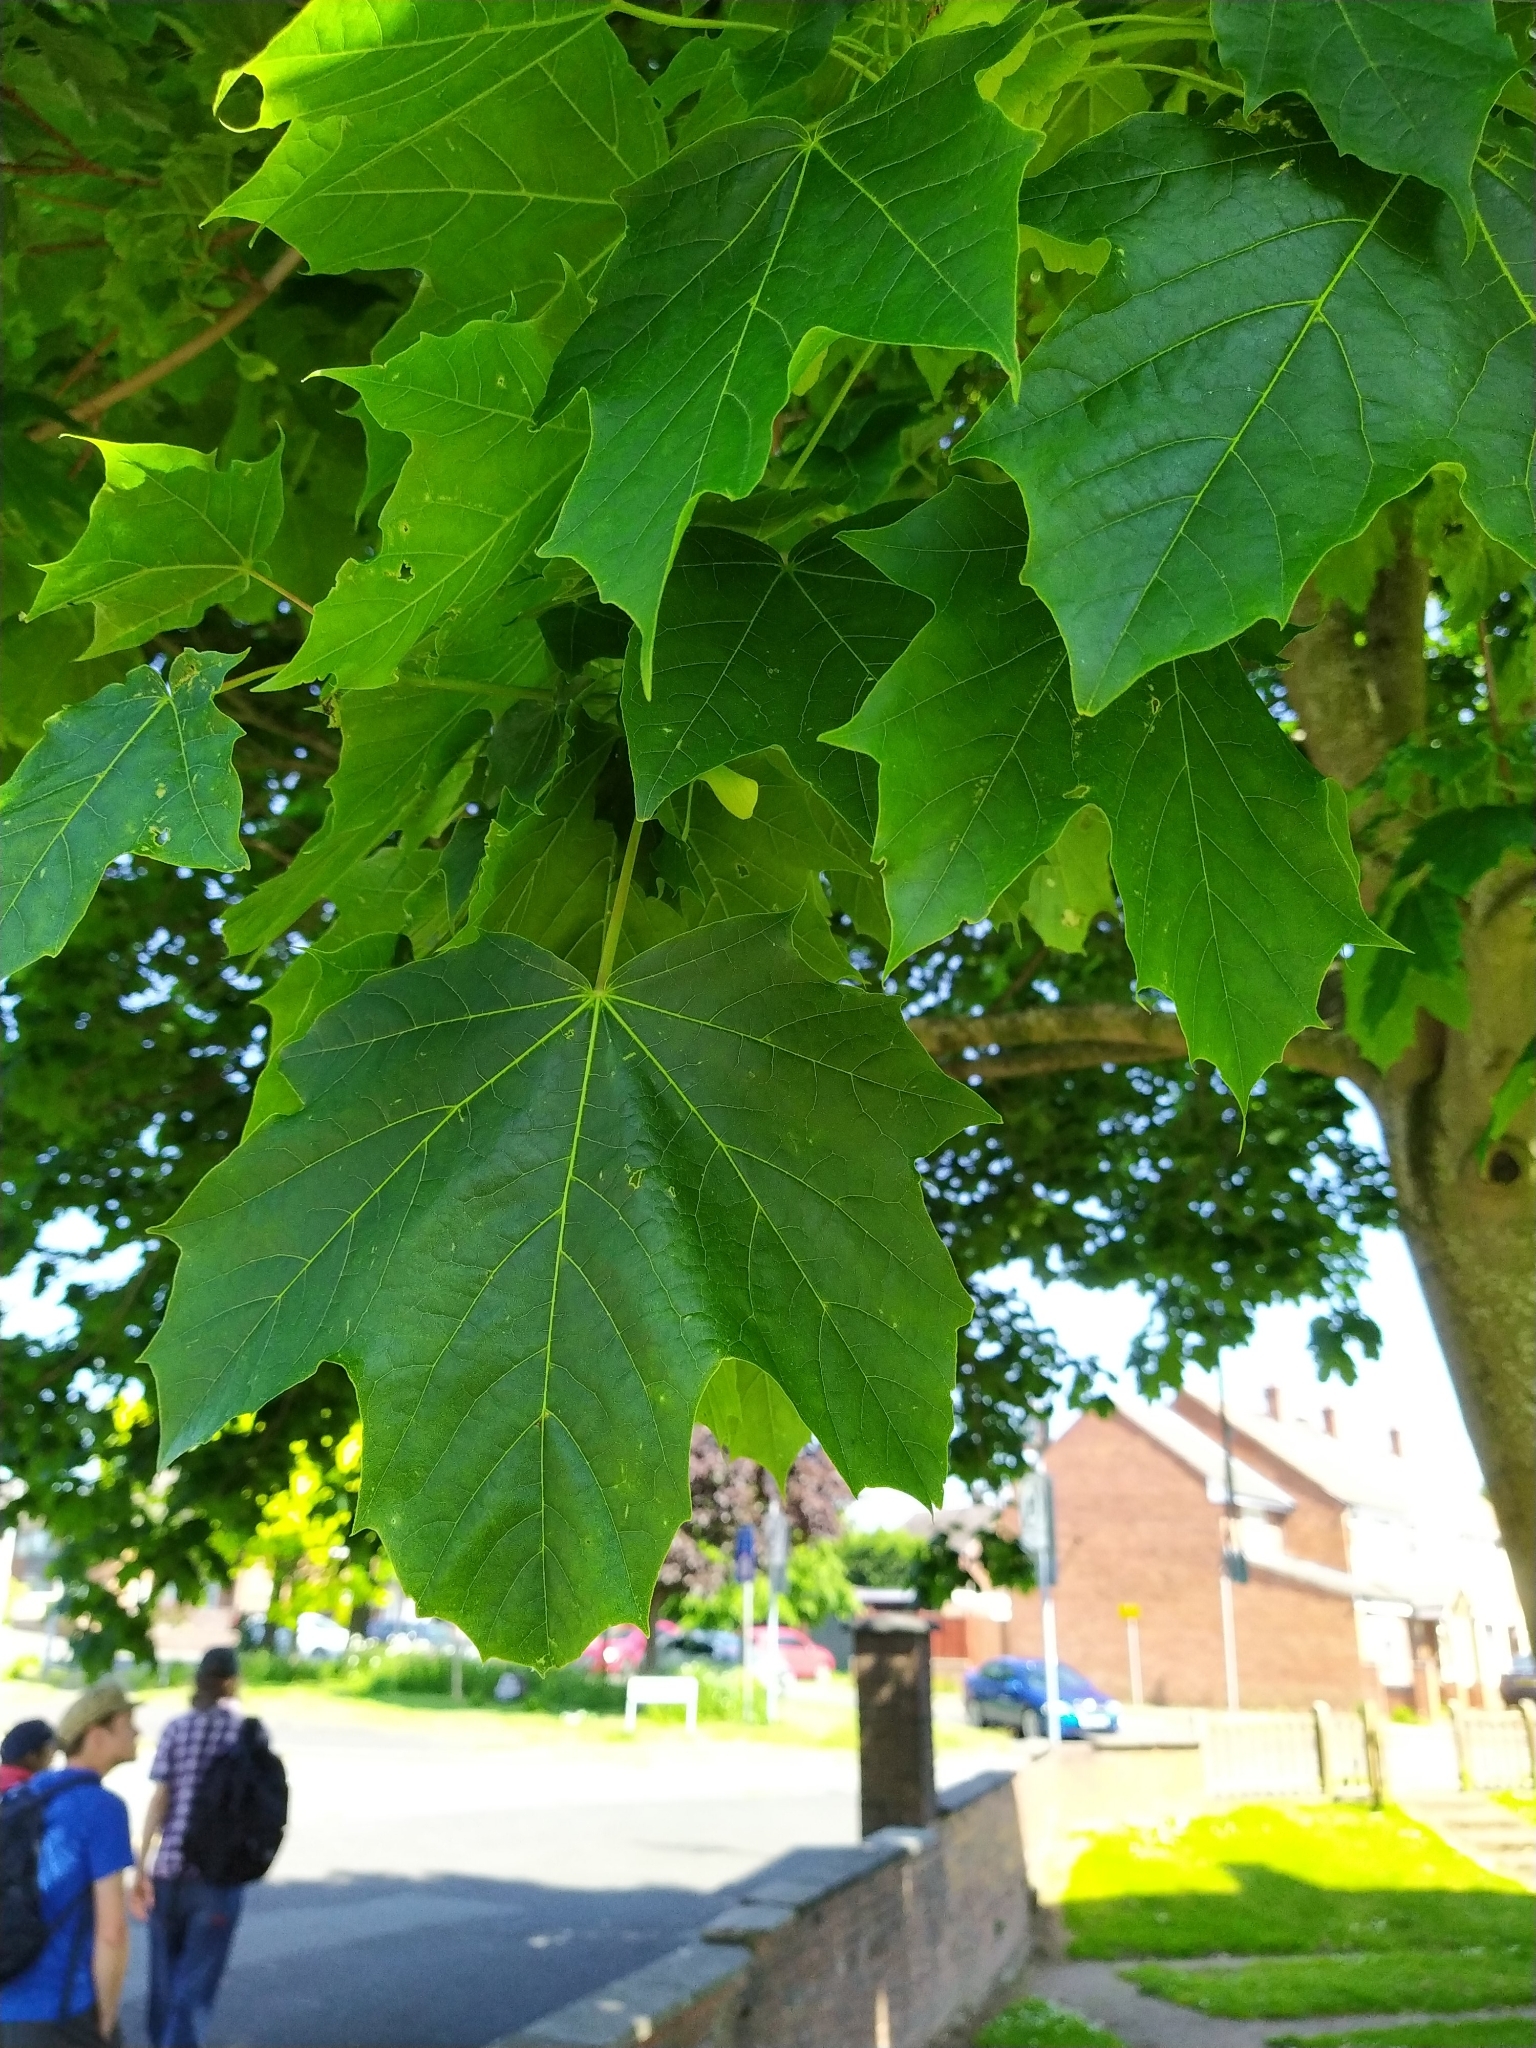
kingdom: Plantae
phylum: Tracheophyta
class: Magnoliopsida
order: Sapindales
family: Sapindaceae
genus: Acer
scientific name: Acer platanoides
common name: Norway maple
